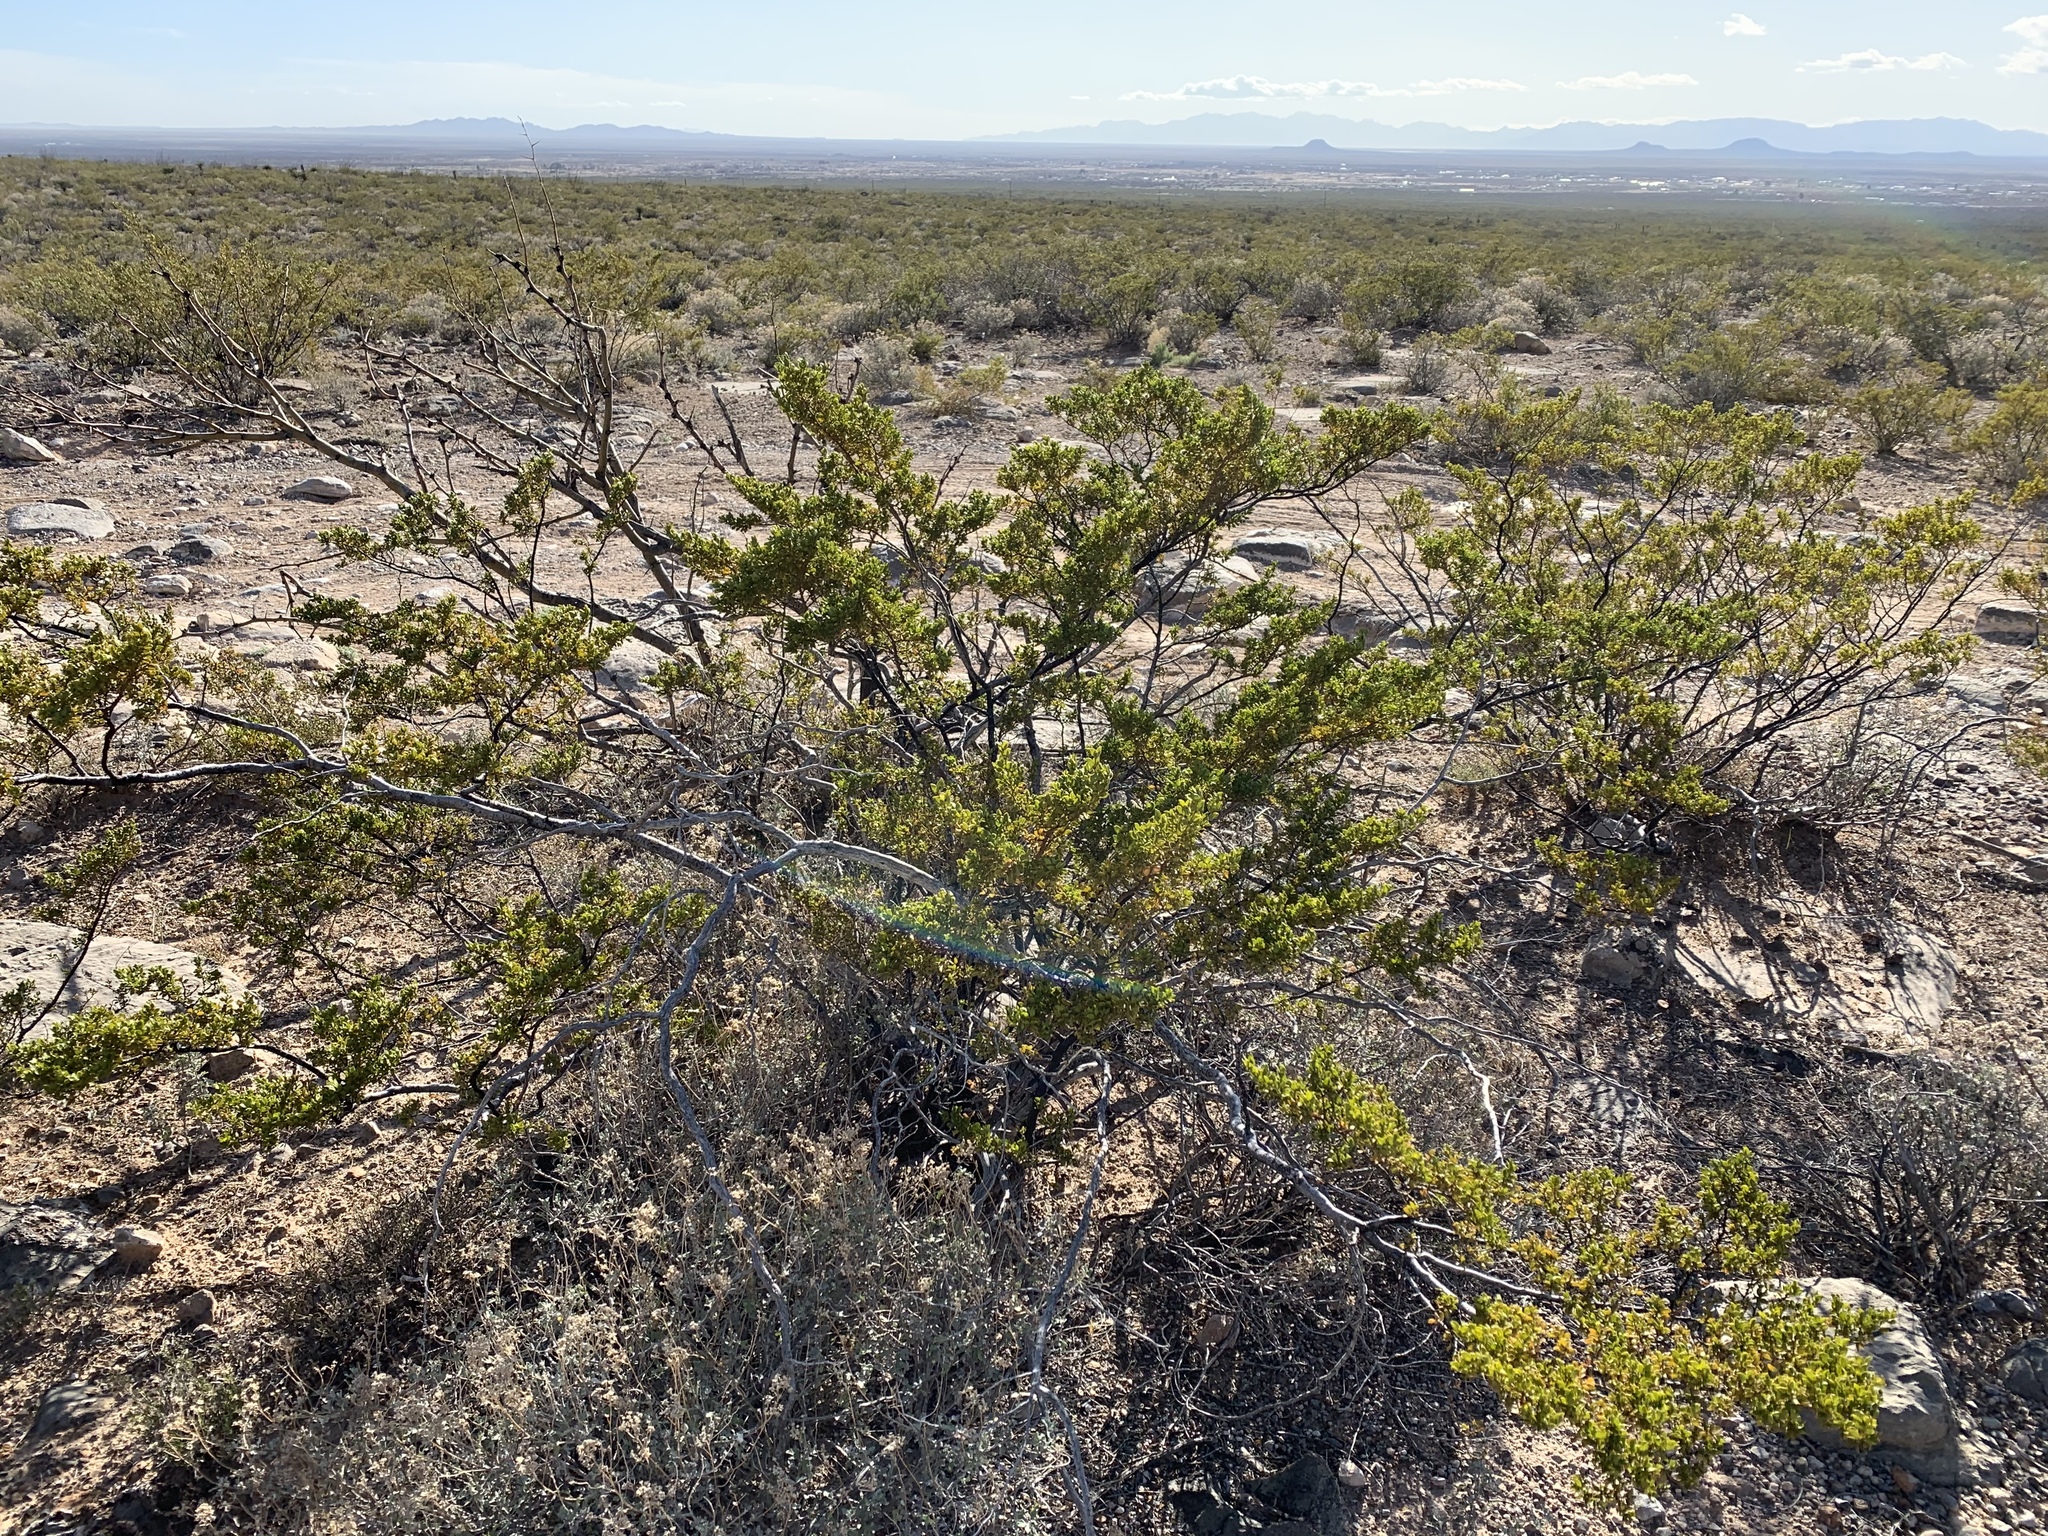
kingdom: Plantae
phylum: Tracheophyta
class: Magnoliopsida
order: Zygophyllales
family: Zygophyllaceae
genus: Larrea
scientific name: Larrea tridentata
